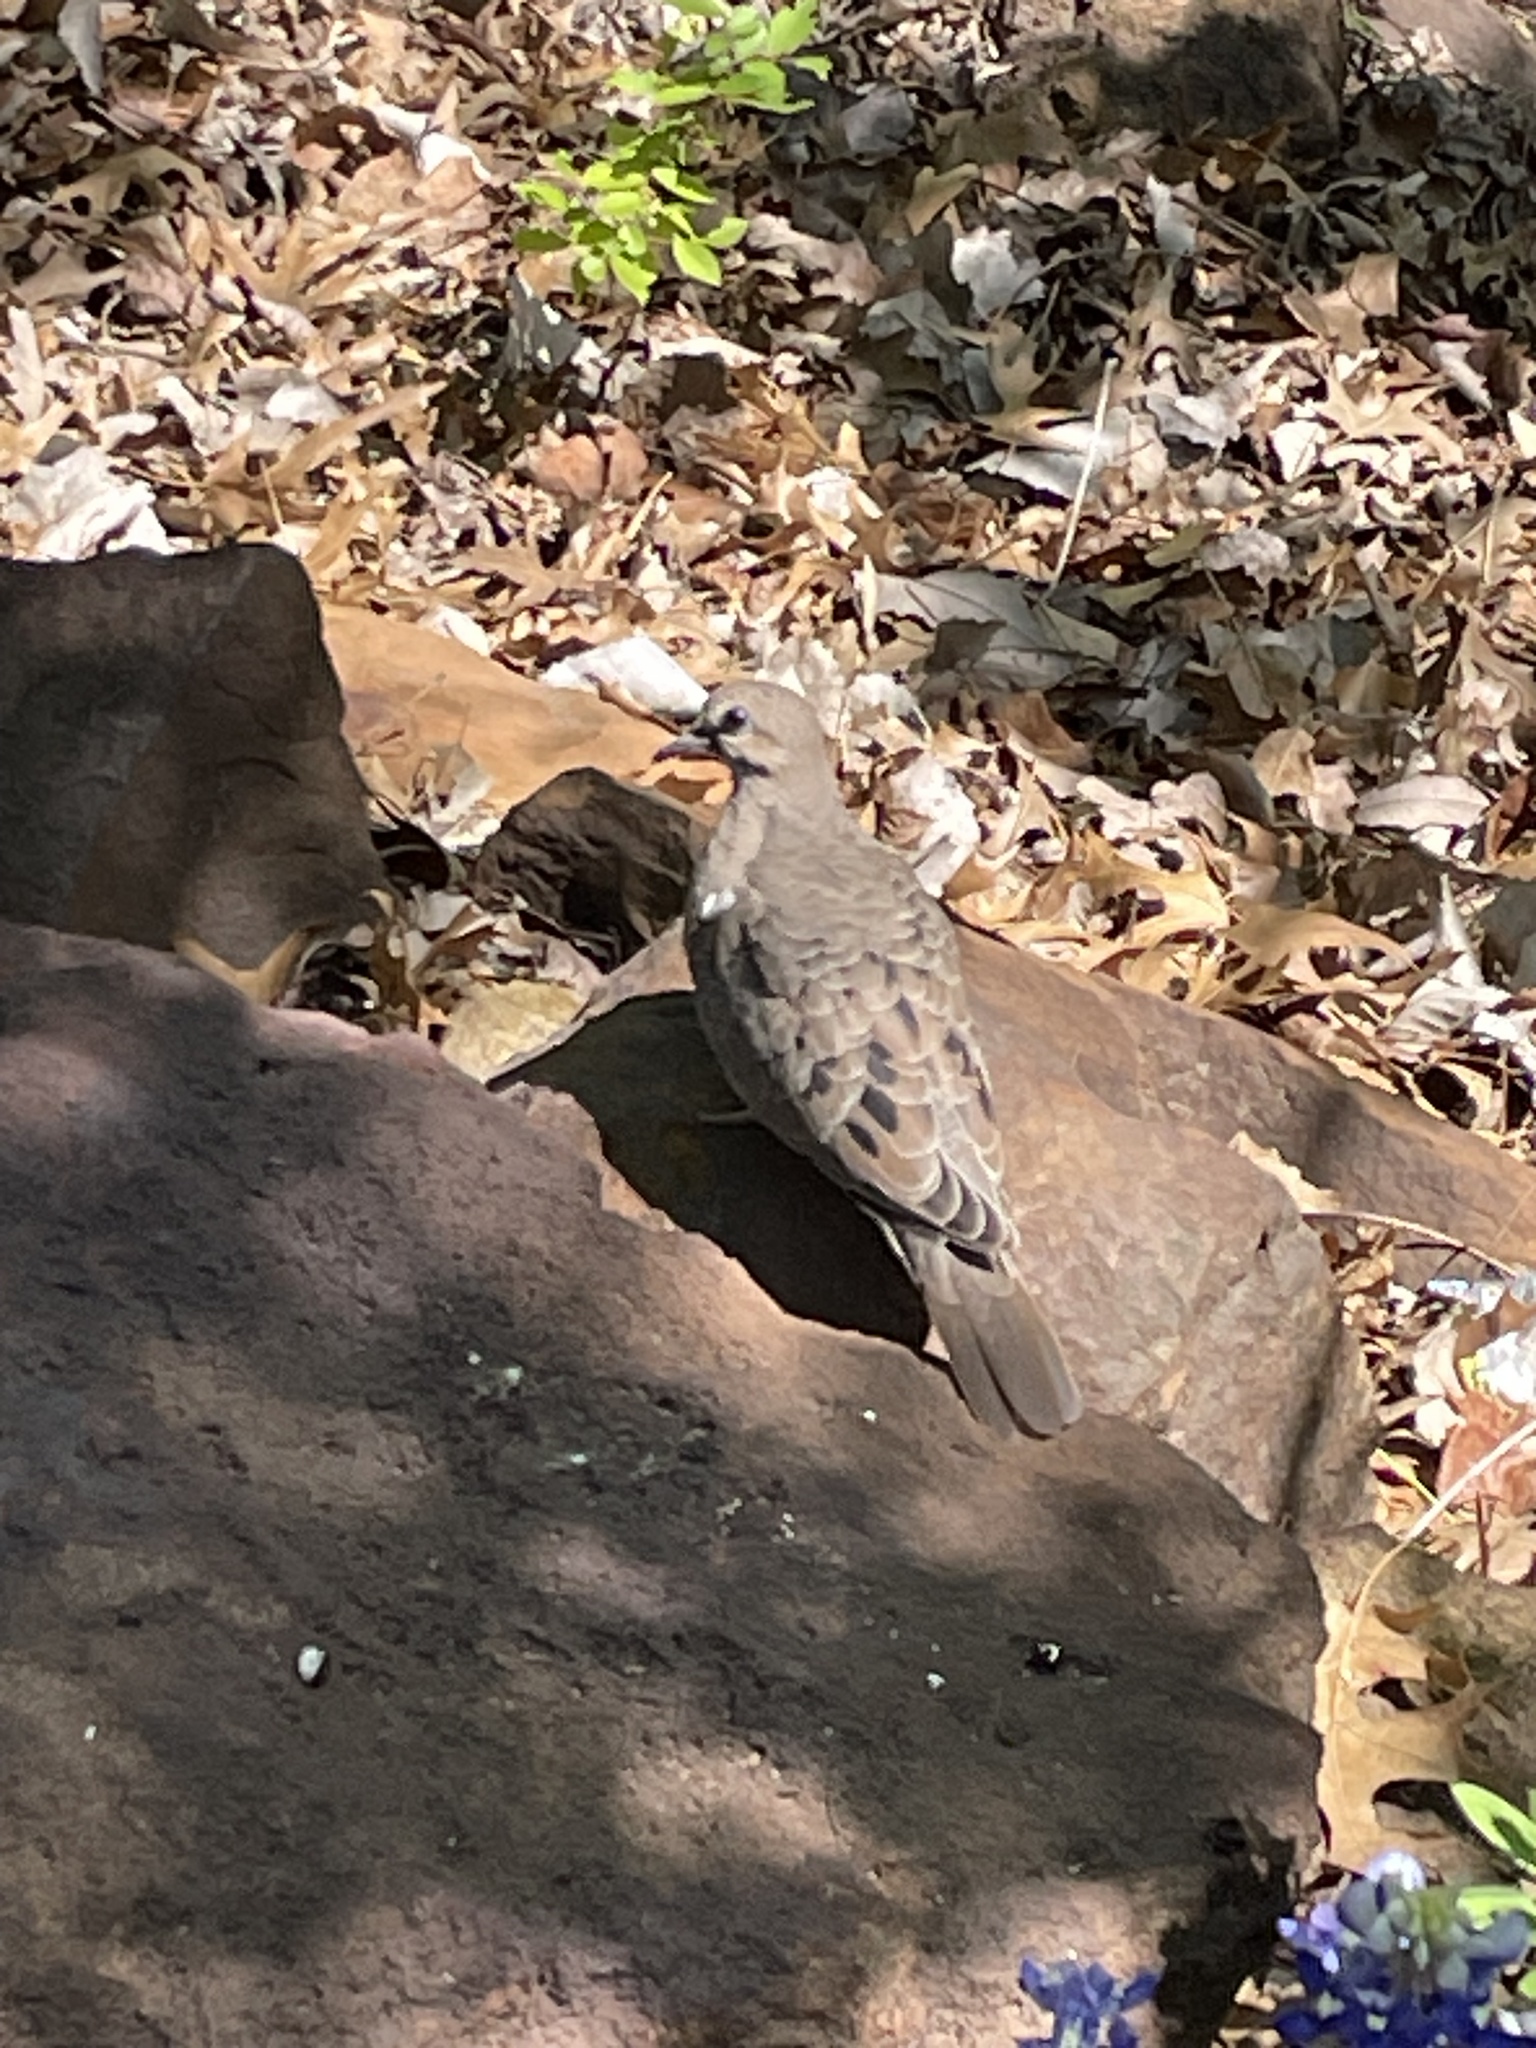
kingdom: Animalia
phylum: Chordata
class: Aves
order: Columbiformes
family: Columbidae
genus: Zenaida
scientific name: Zenaida macroura
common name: Mourning dove
